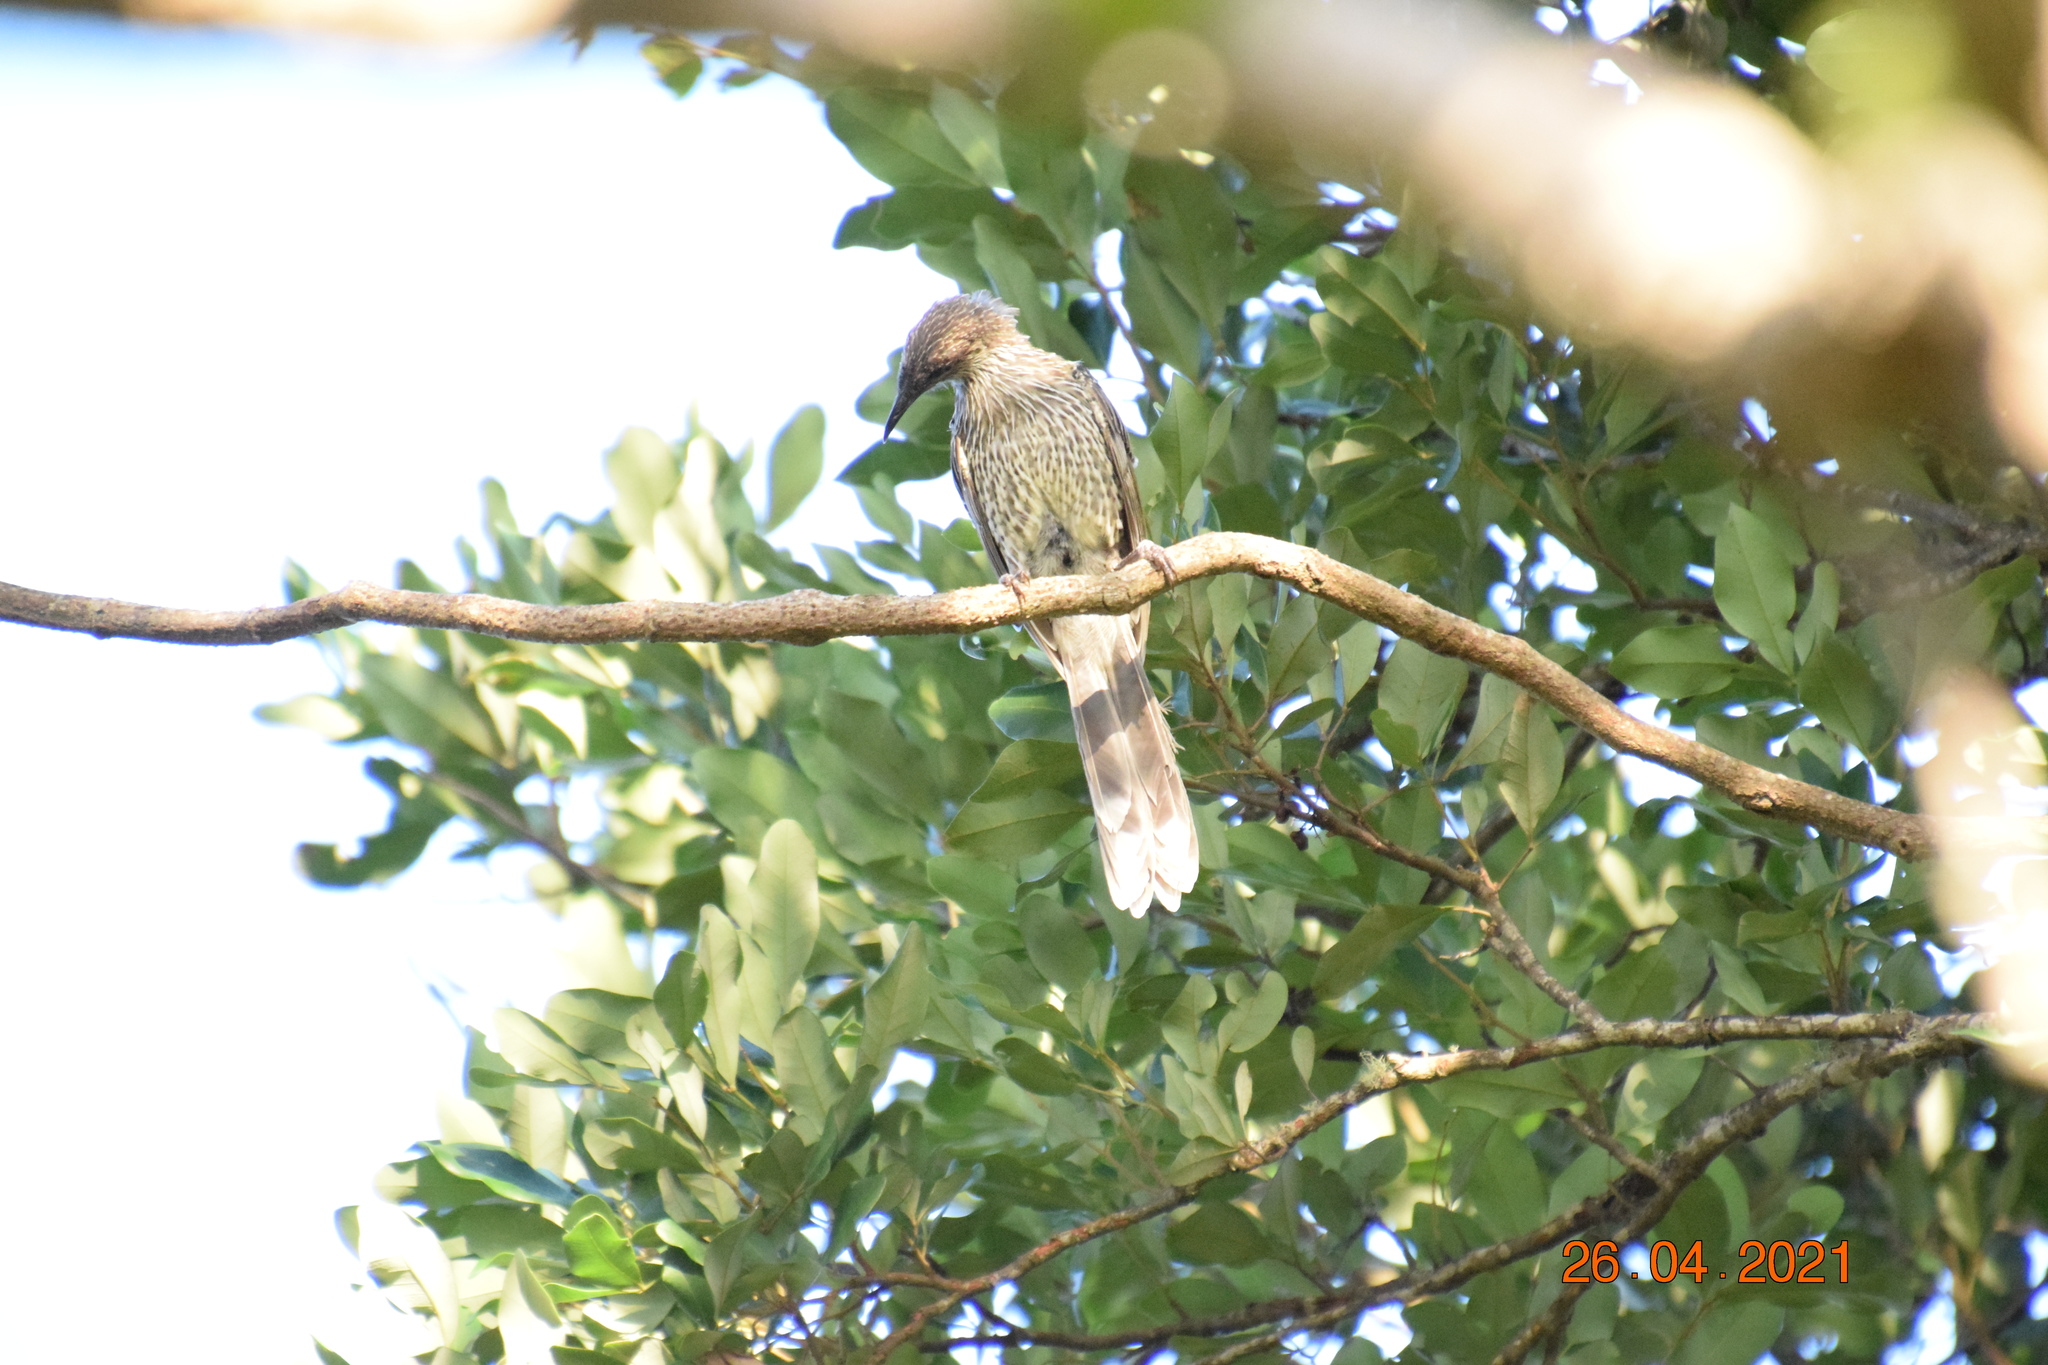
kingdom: Animalia
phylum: Chordata
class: Aves
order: Passeriformes
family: Meliphagidae
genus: Anthochaera
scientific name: Anthochaera chrysoptera
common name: Little wattlebird
